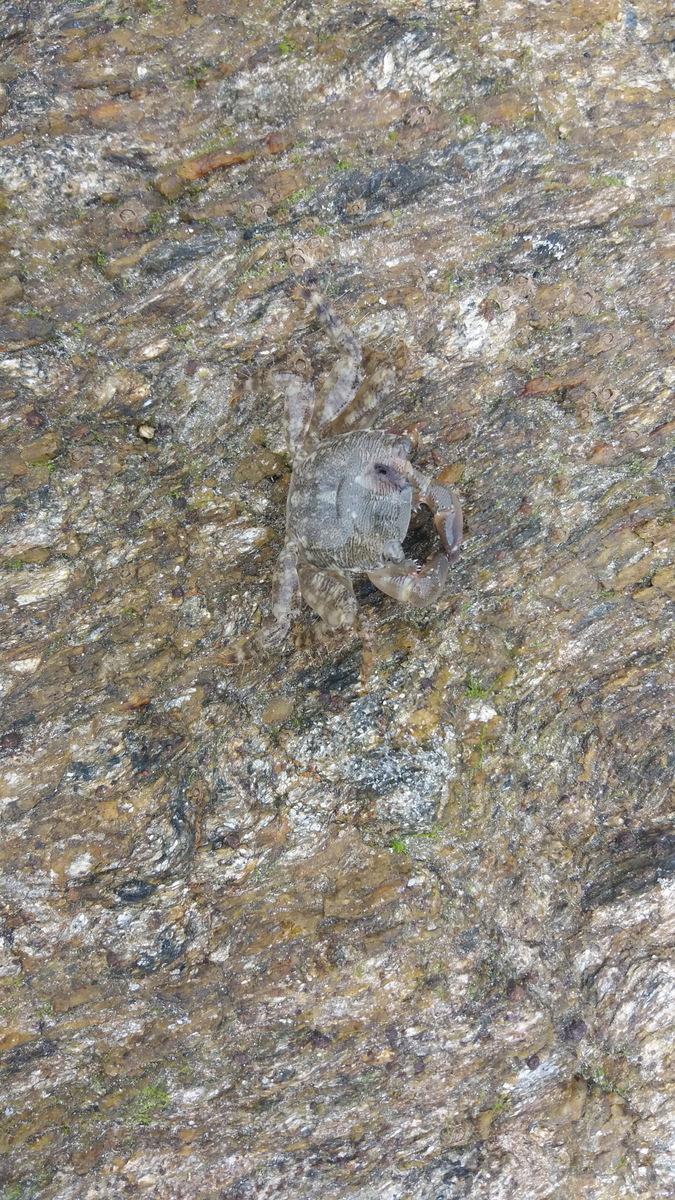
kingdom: Animalia
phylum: Arthropoda
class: Malacostraca
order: Decapoda
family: Grapsidae
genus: Pachygrapsus
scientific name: Pachygrapsus marmoratus
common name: Marbled rock crab
